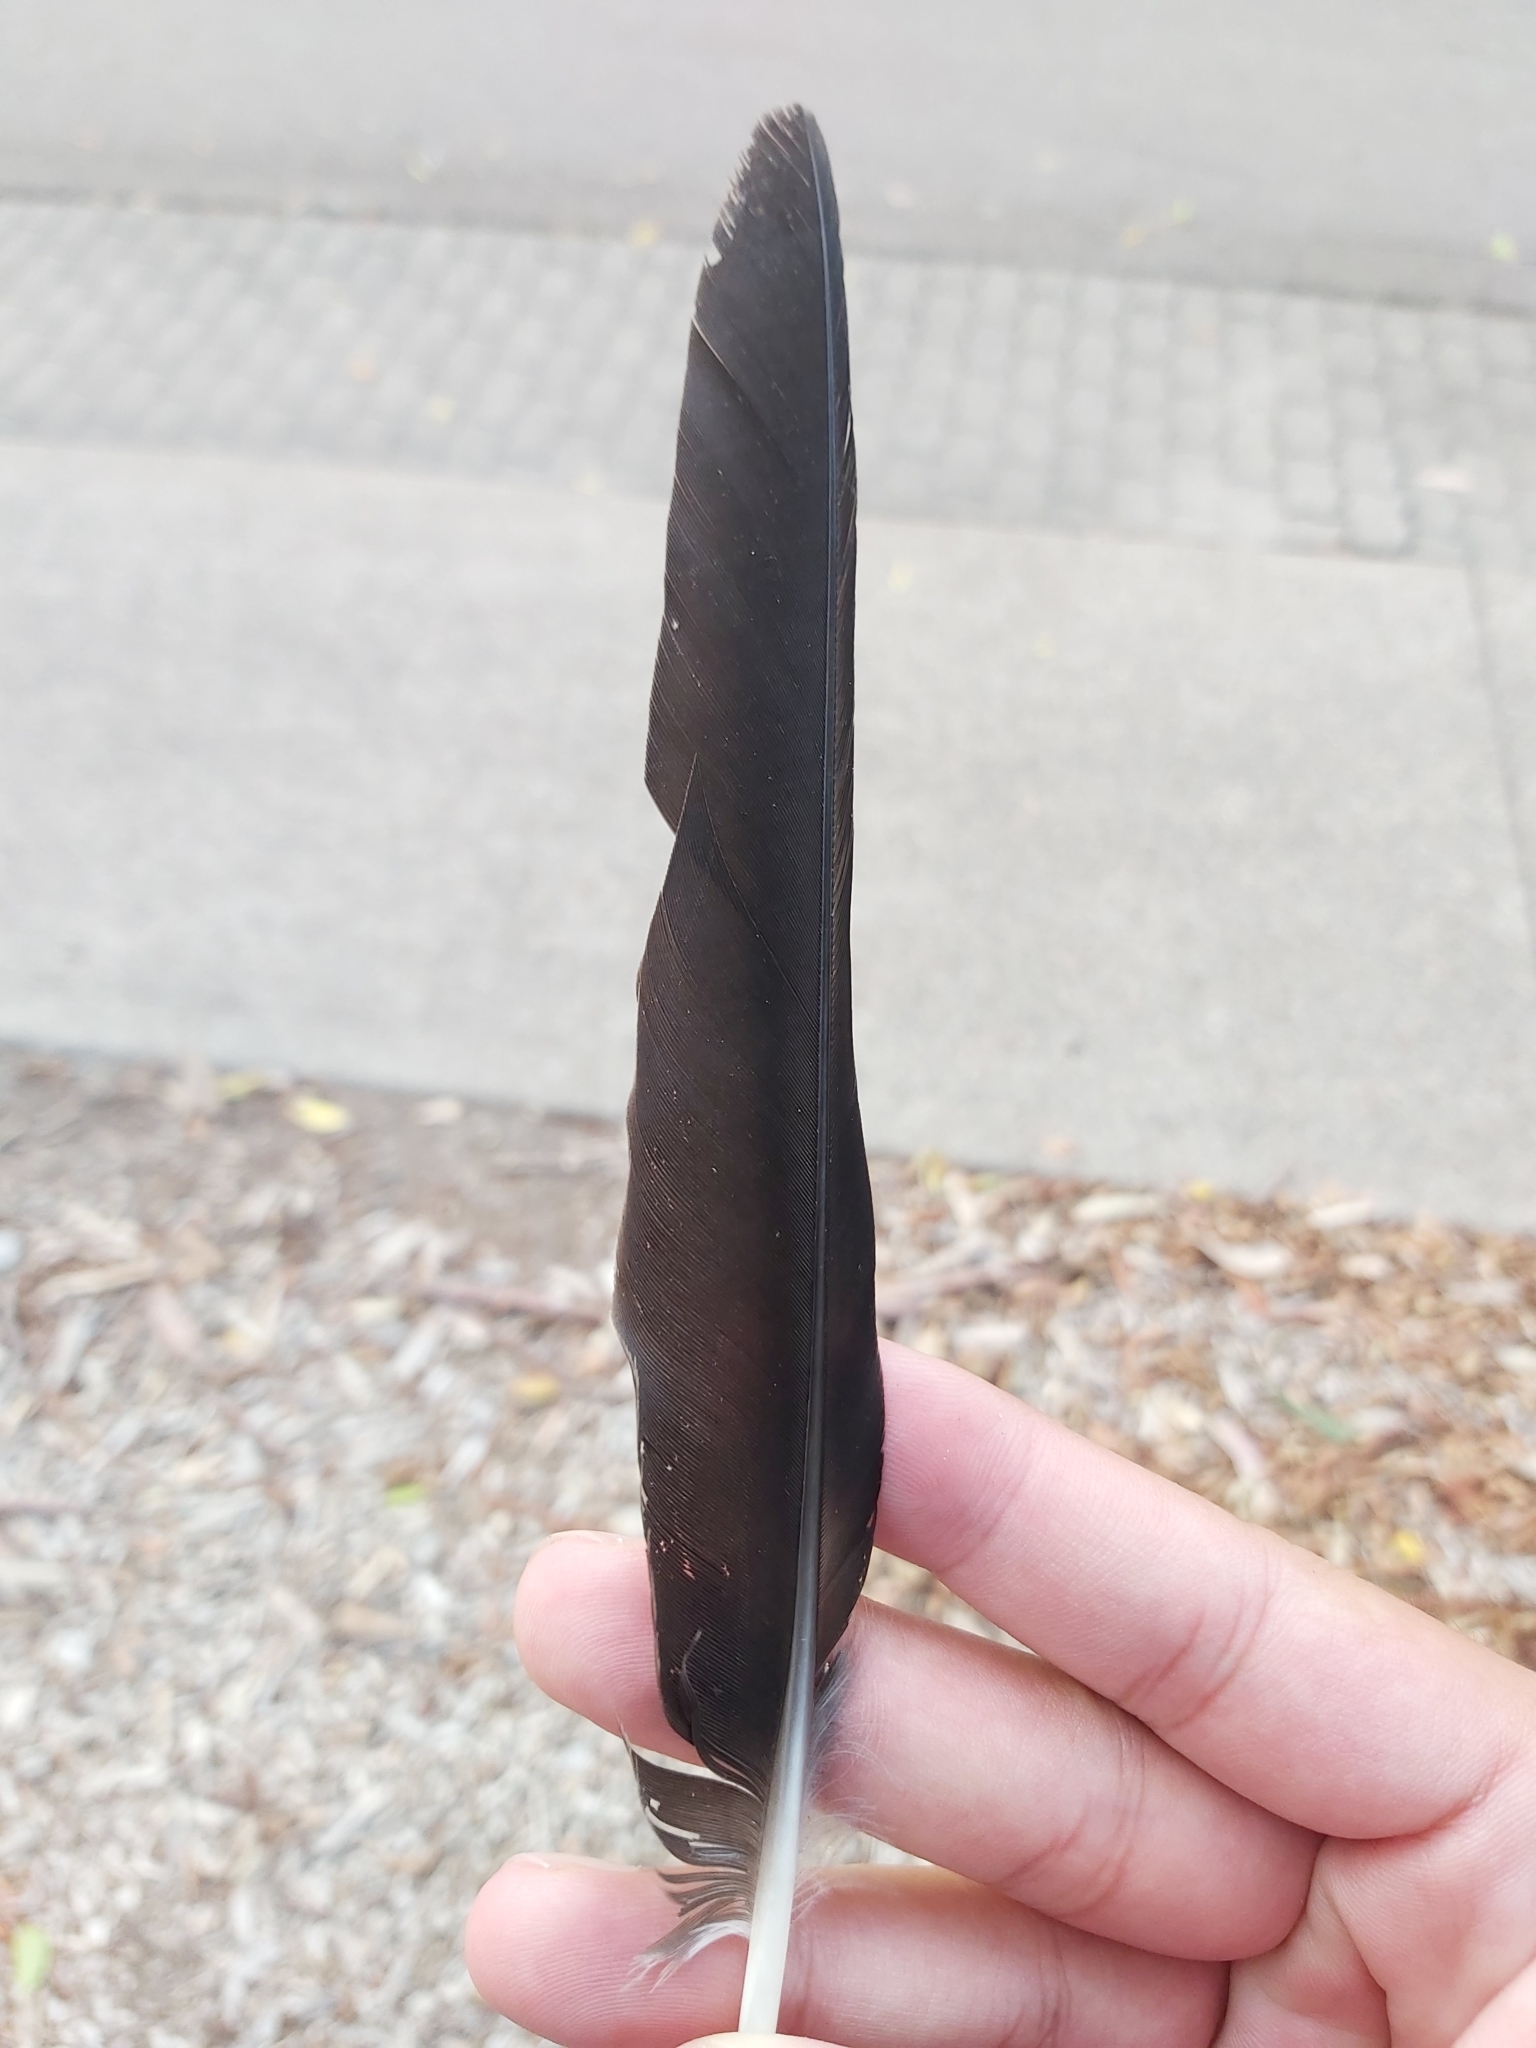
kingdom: Animalia
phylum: Chordata
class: Aves
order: Passeriformes
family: Cracticidae
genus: Gymnorhina
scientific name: Gymnorhina tibicen
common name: Australian magpie
